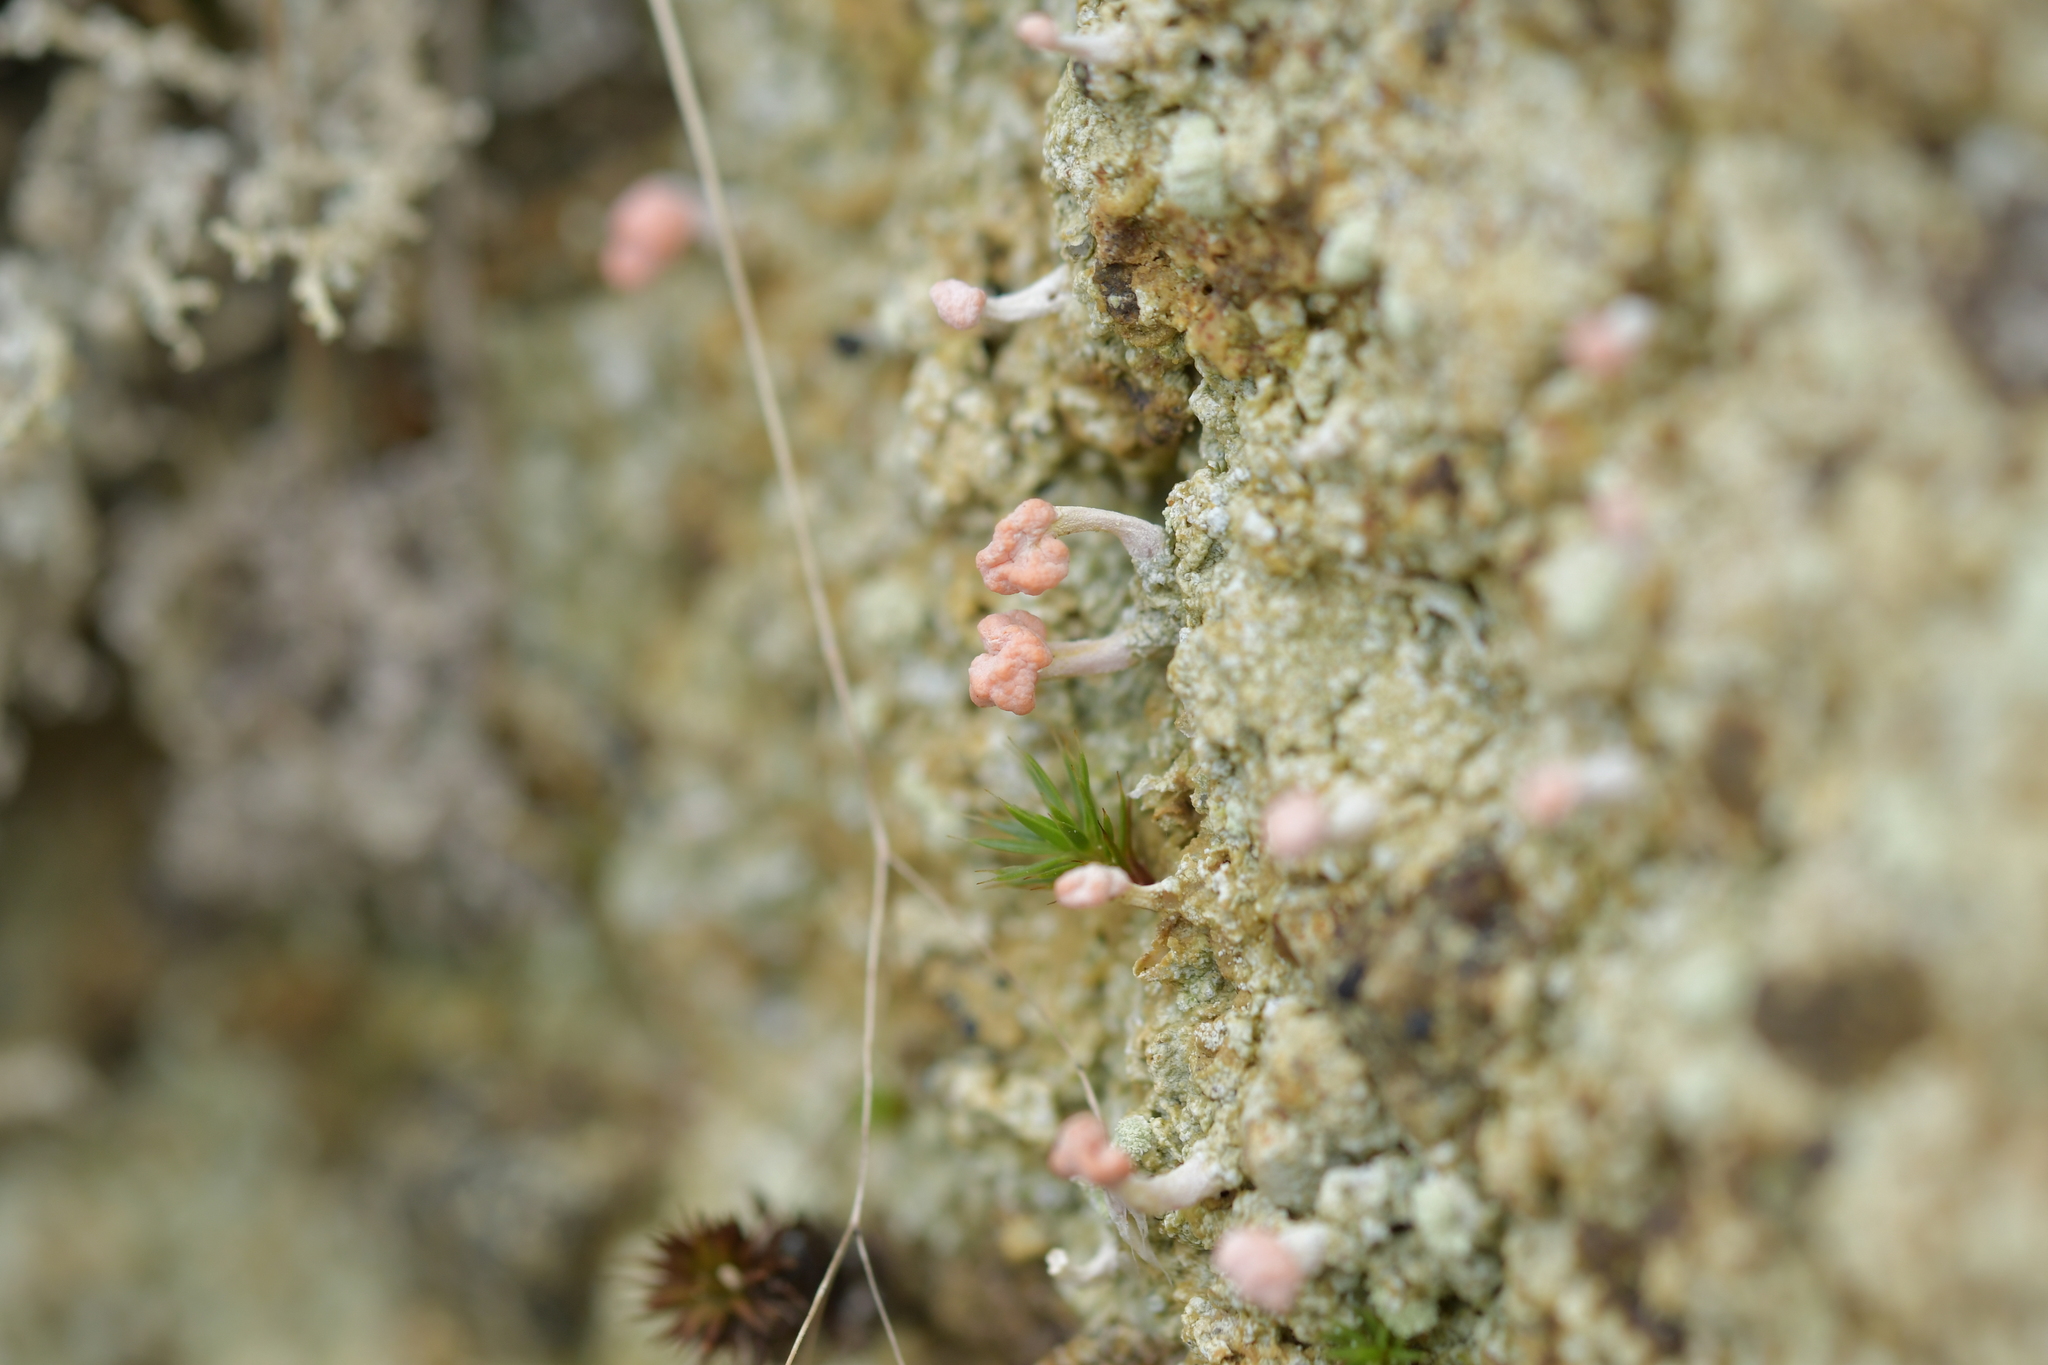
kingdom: Fungi
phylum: Ascomycota
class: Lecanoromycetes
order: Pertusariales
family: Icmadophilaceae
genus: Dibaeis
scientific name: Dibaeis arcuata
